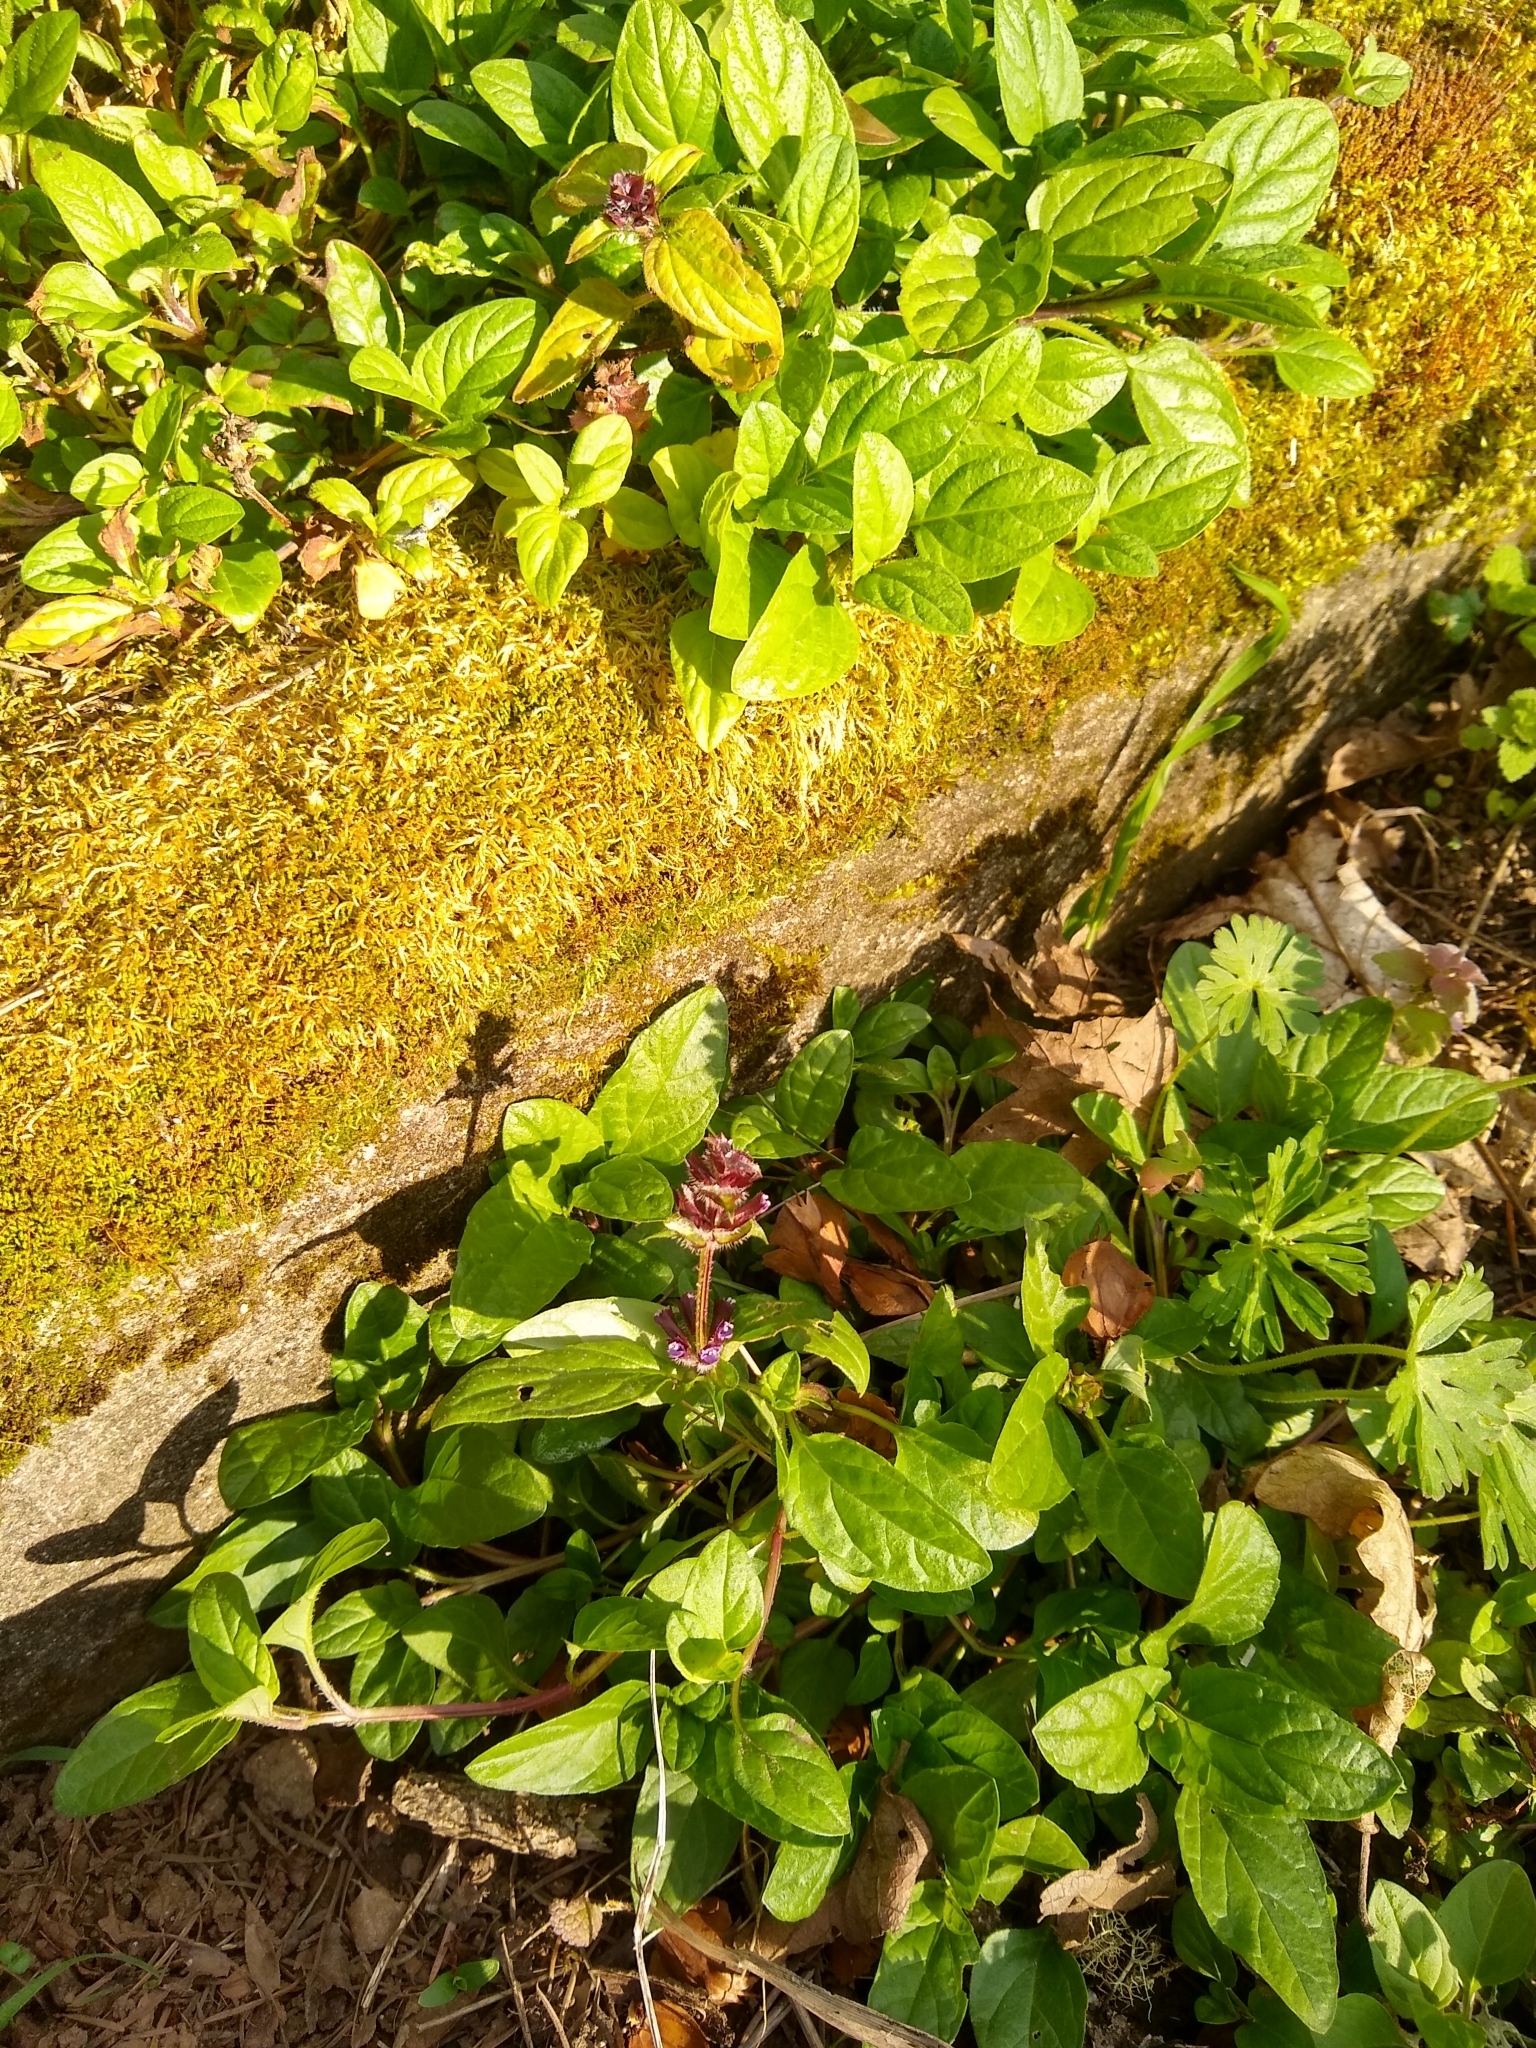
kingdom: Plantae
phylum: Tracheophyta
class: Magnoliopsida
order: Lamiales
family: Lamiaceae
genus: Prunella
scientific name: Prunella vulgaris
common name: Heal-all
